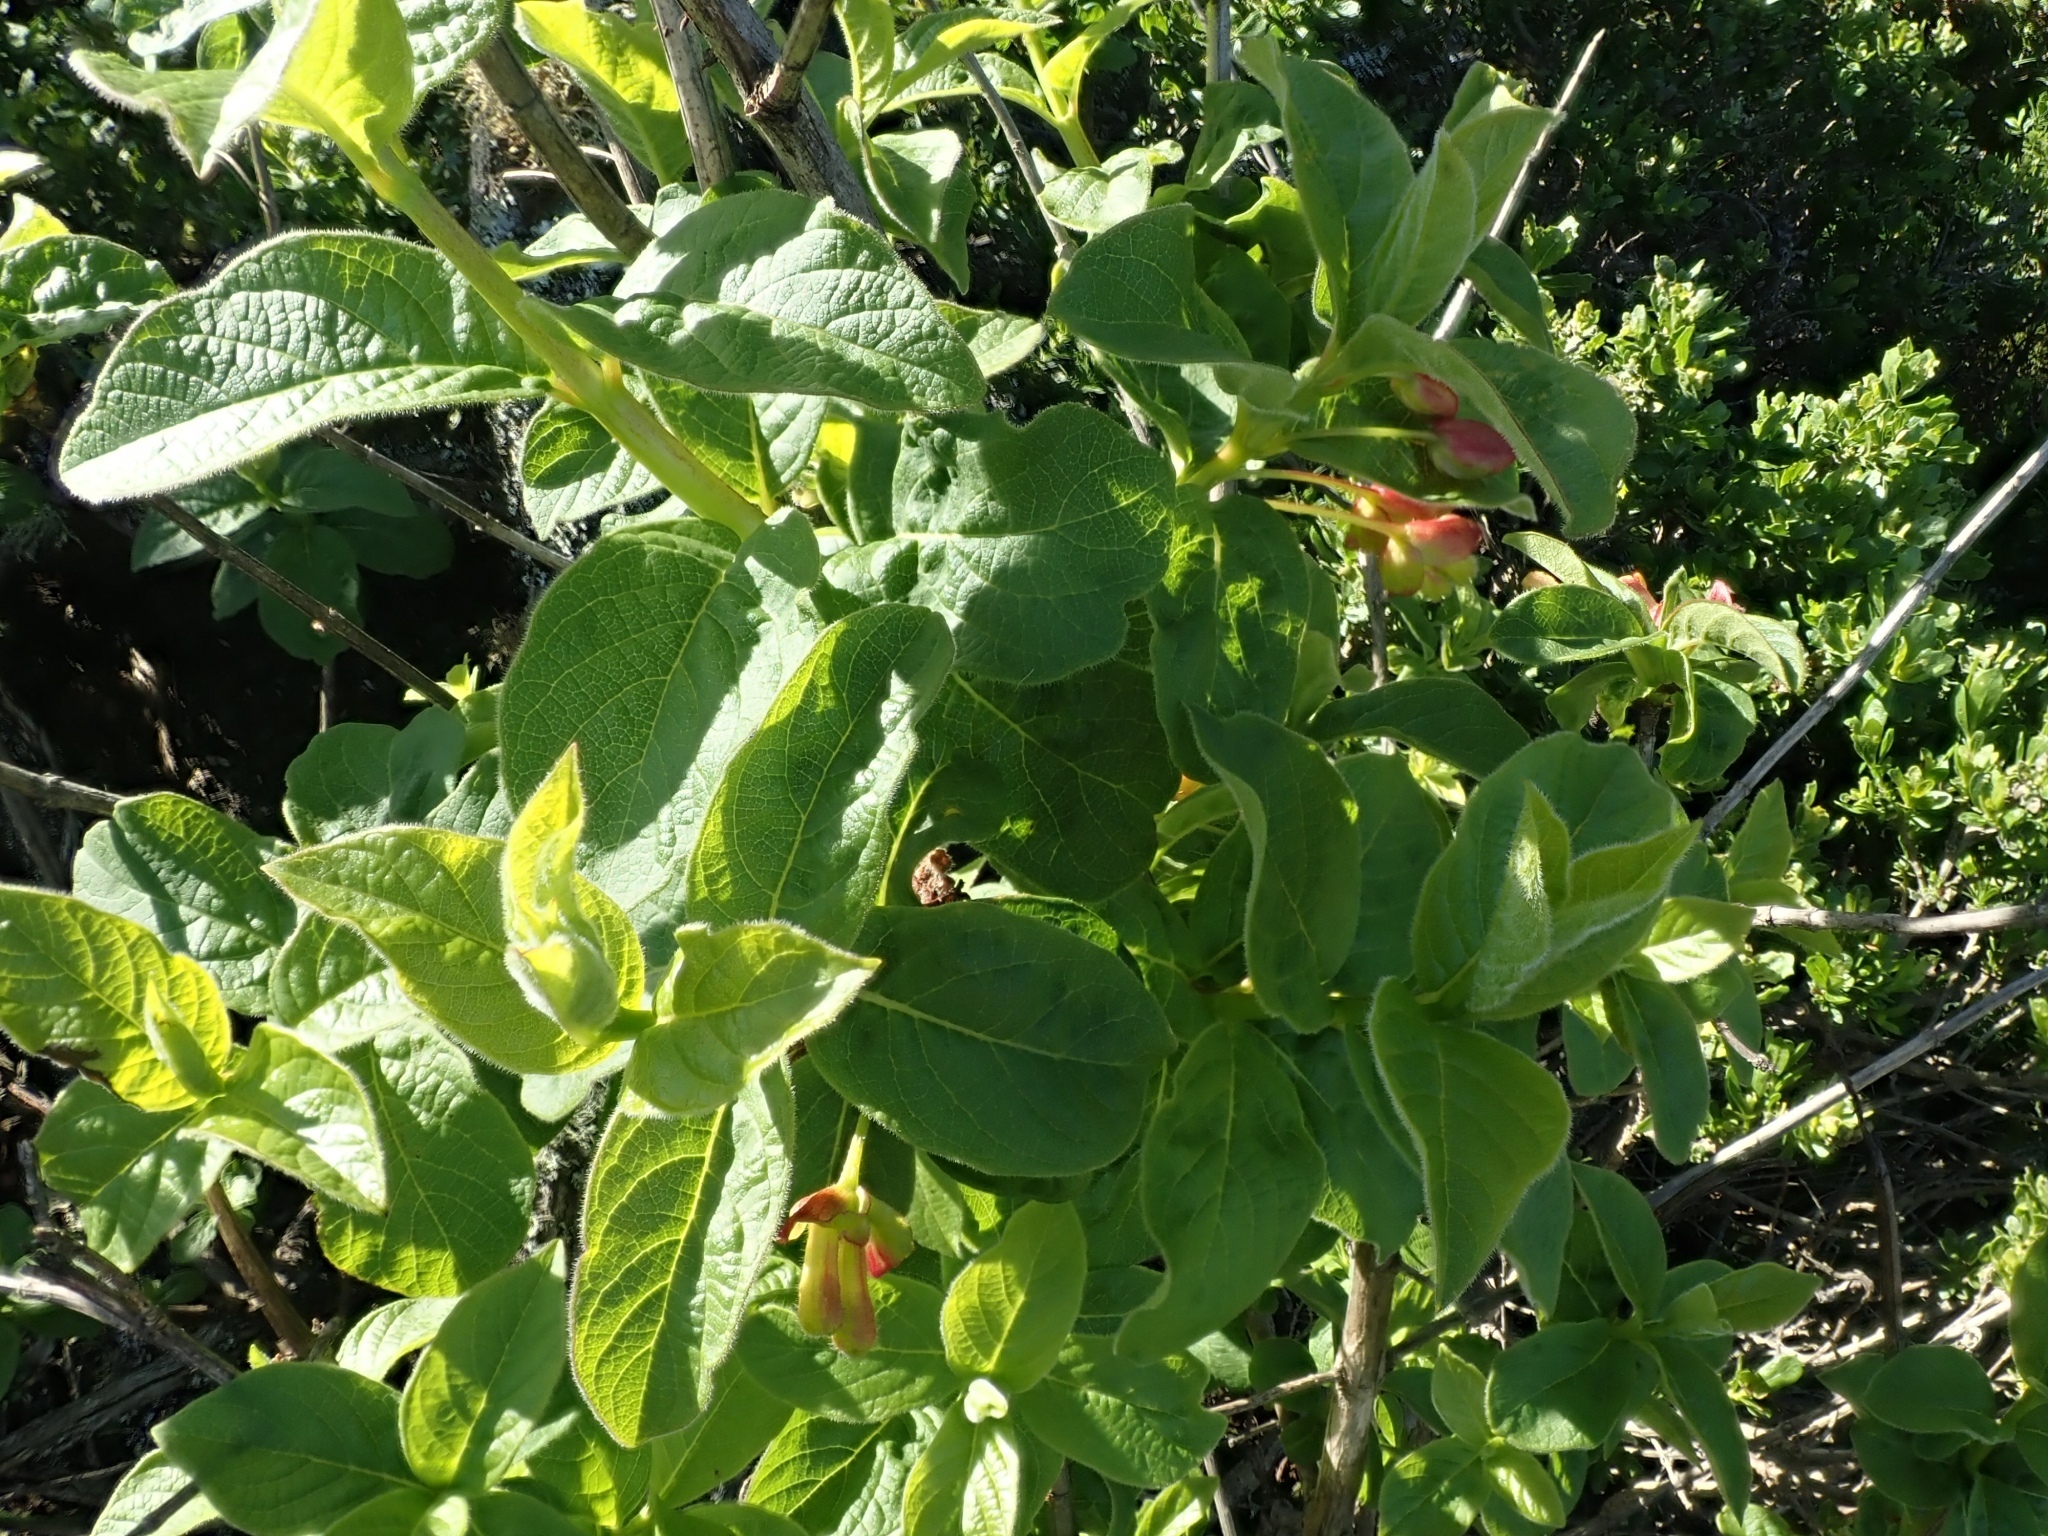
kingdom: Plantae
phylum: Tracheophyta
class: Magnoliopsida
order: Dipsacales
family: Caprifoliaceae
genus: Lonicera
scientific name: Lonicera involucrata
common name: Californian honeysuckle
